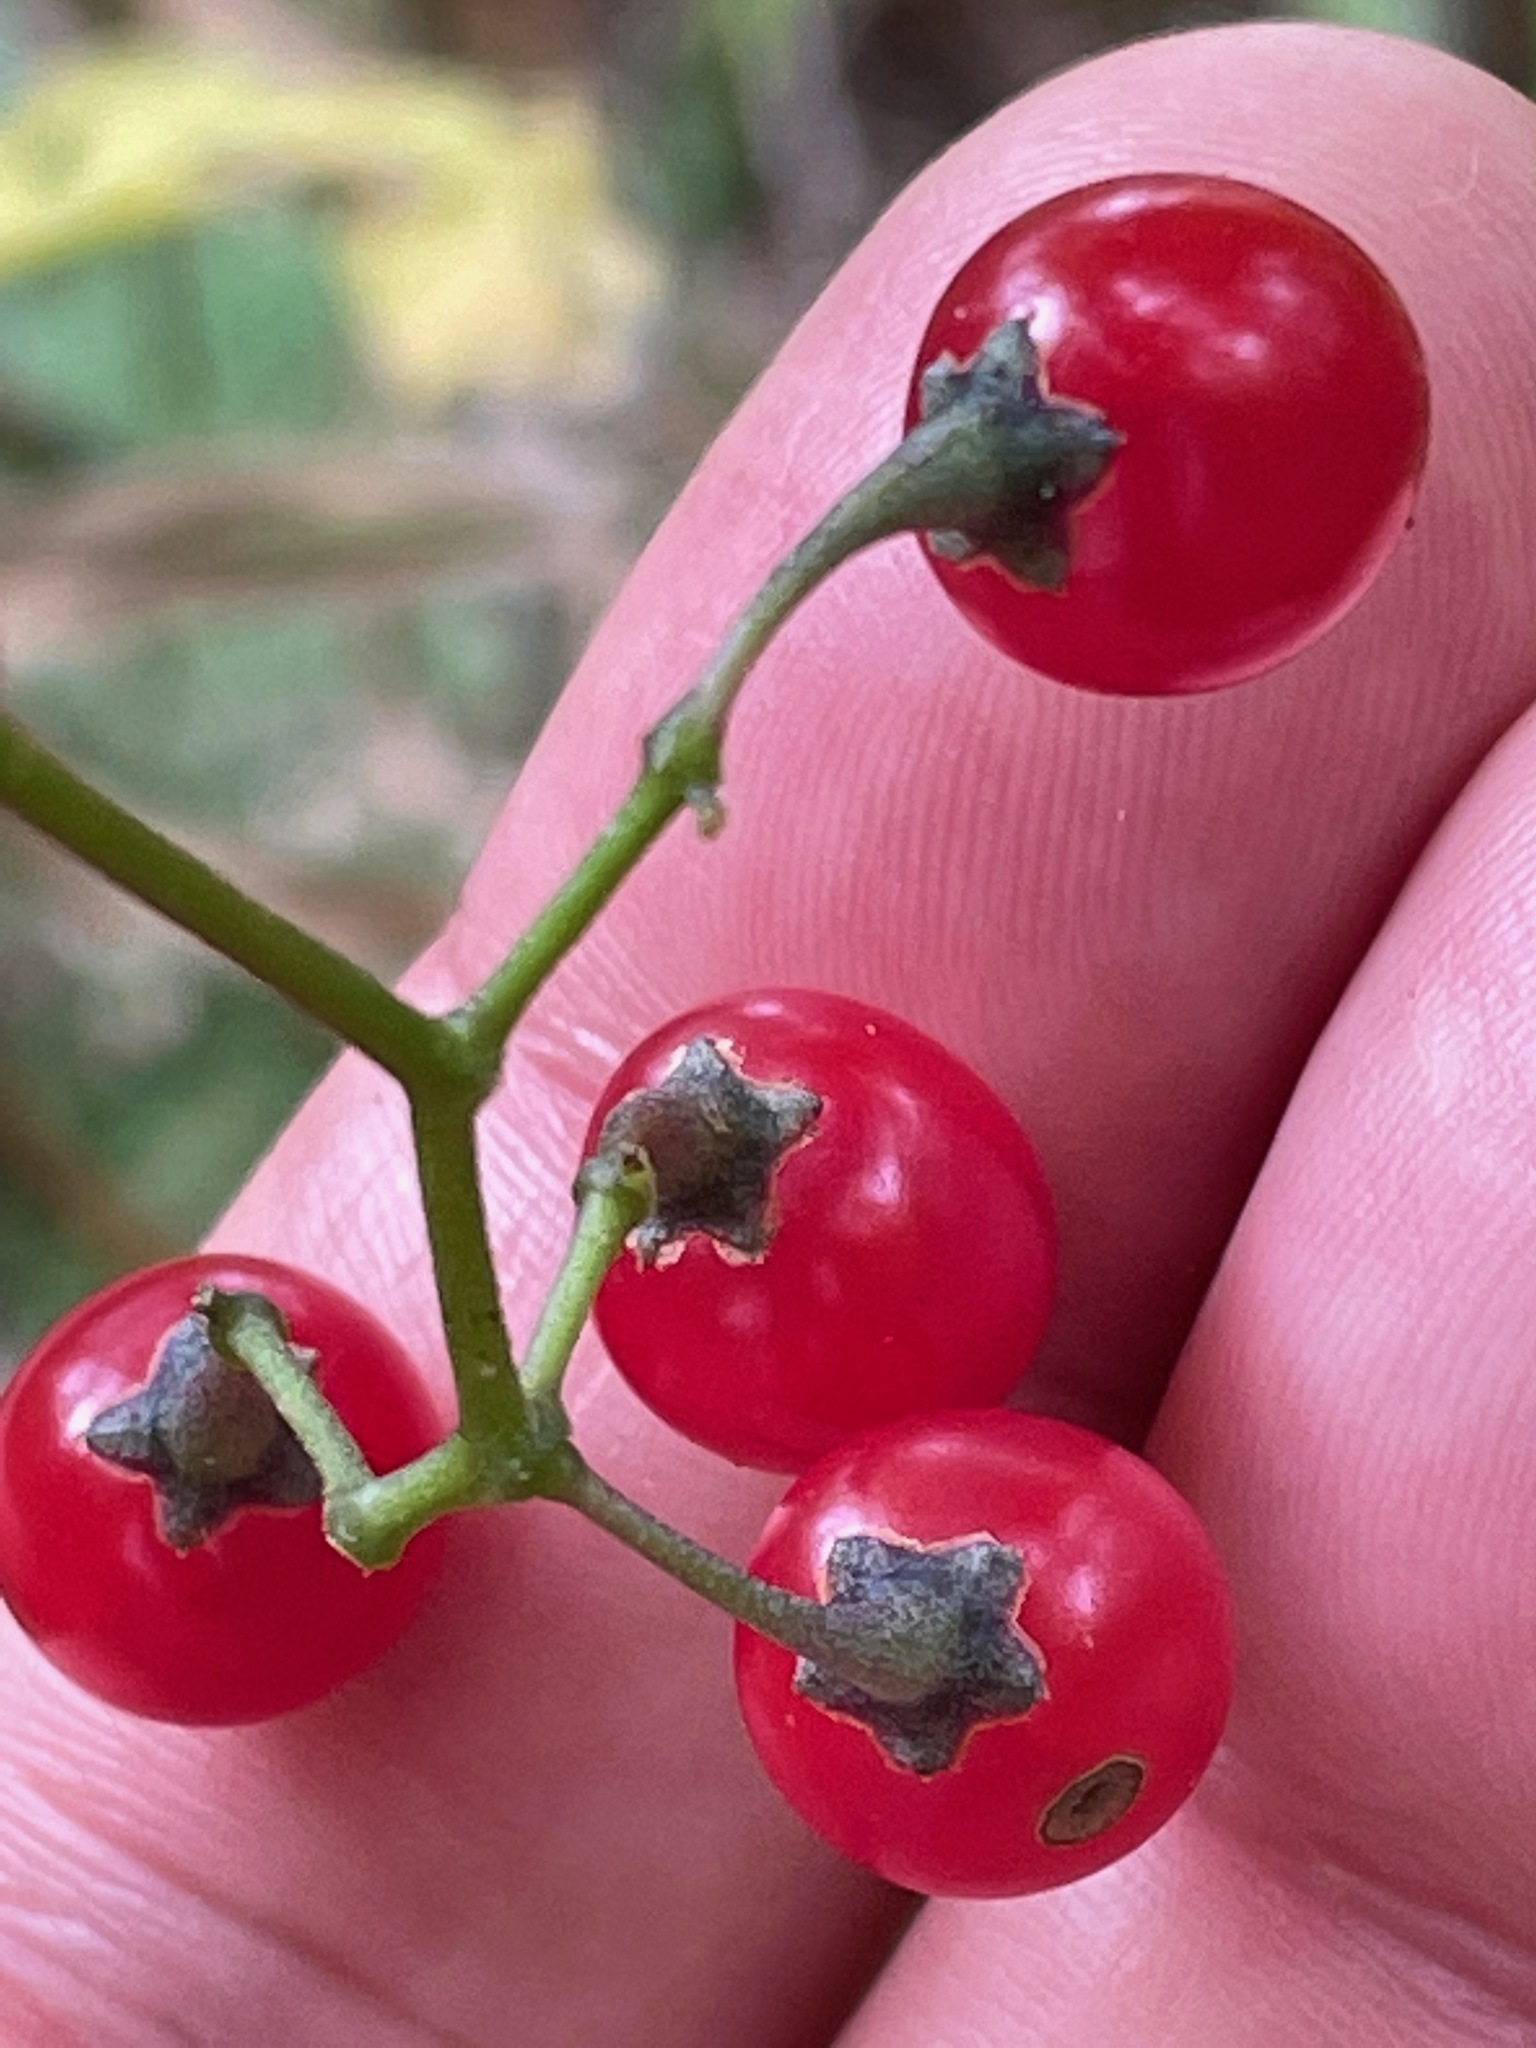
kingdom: Plantae
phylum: Tracheophyta
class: Magnoliopsida
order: Solanales
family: Solanaceae
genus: Solanum
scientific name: Solanum dulcamara
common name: Climbing nightshade
